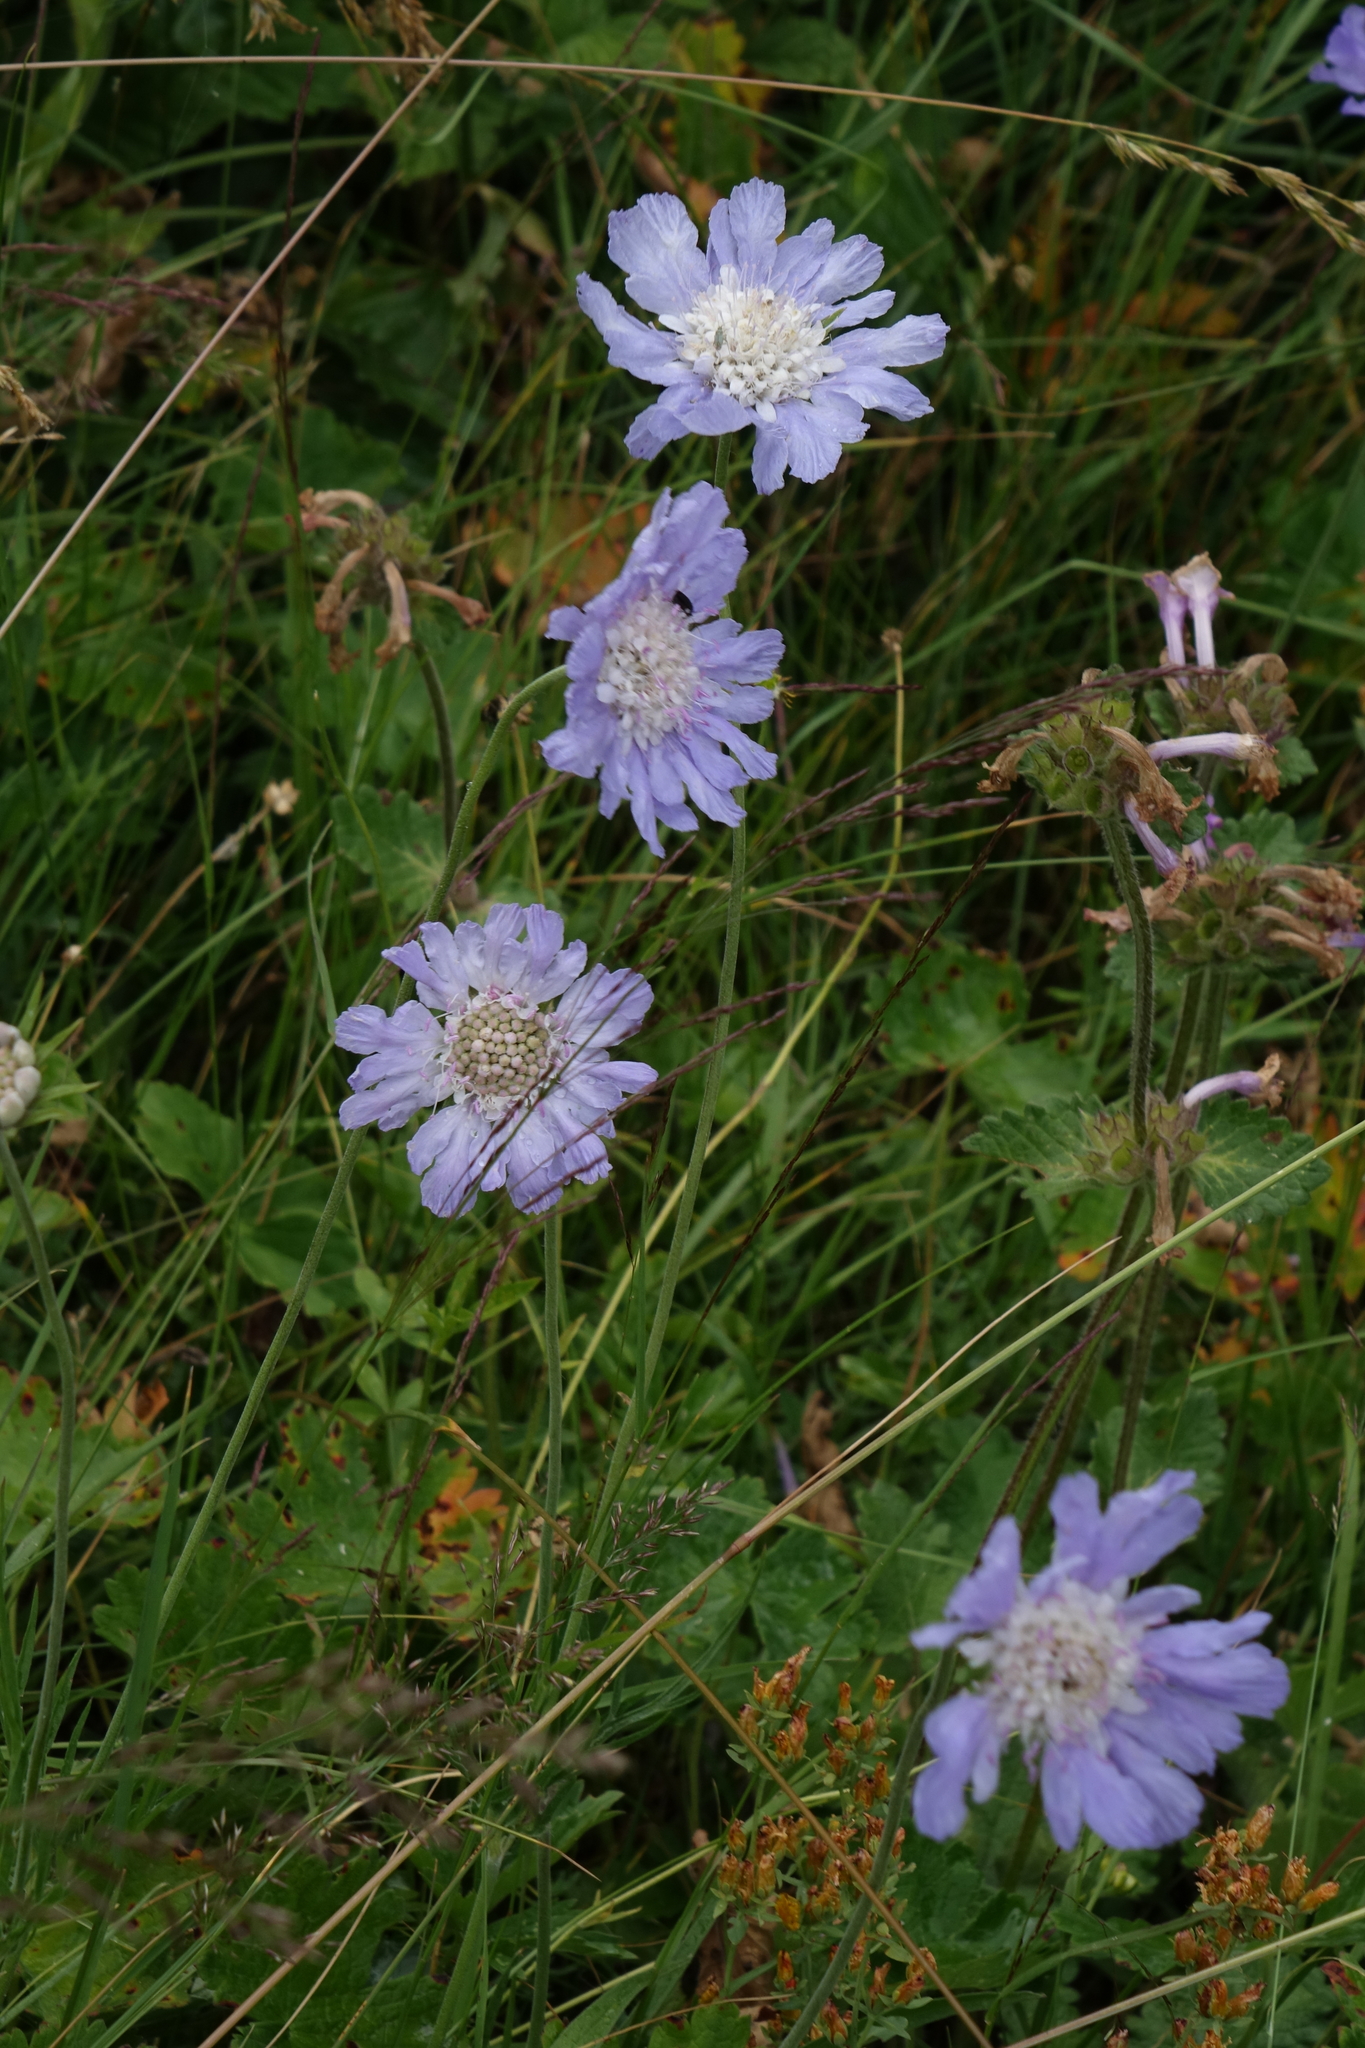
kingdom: Plantae
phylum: Tracheophyta
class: Magnoliopsida
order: Dipsacales
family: Caprifoliaceae
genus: Lomelosia
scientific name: Lomelosia caucasica
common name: Pincushion-flower
